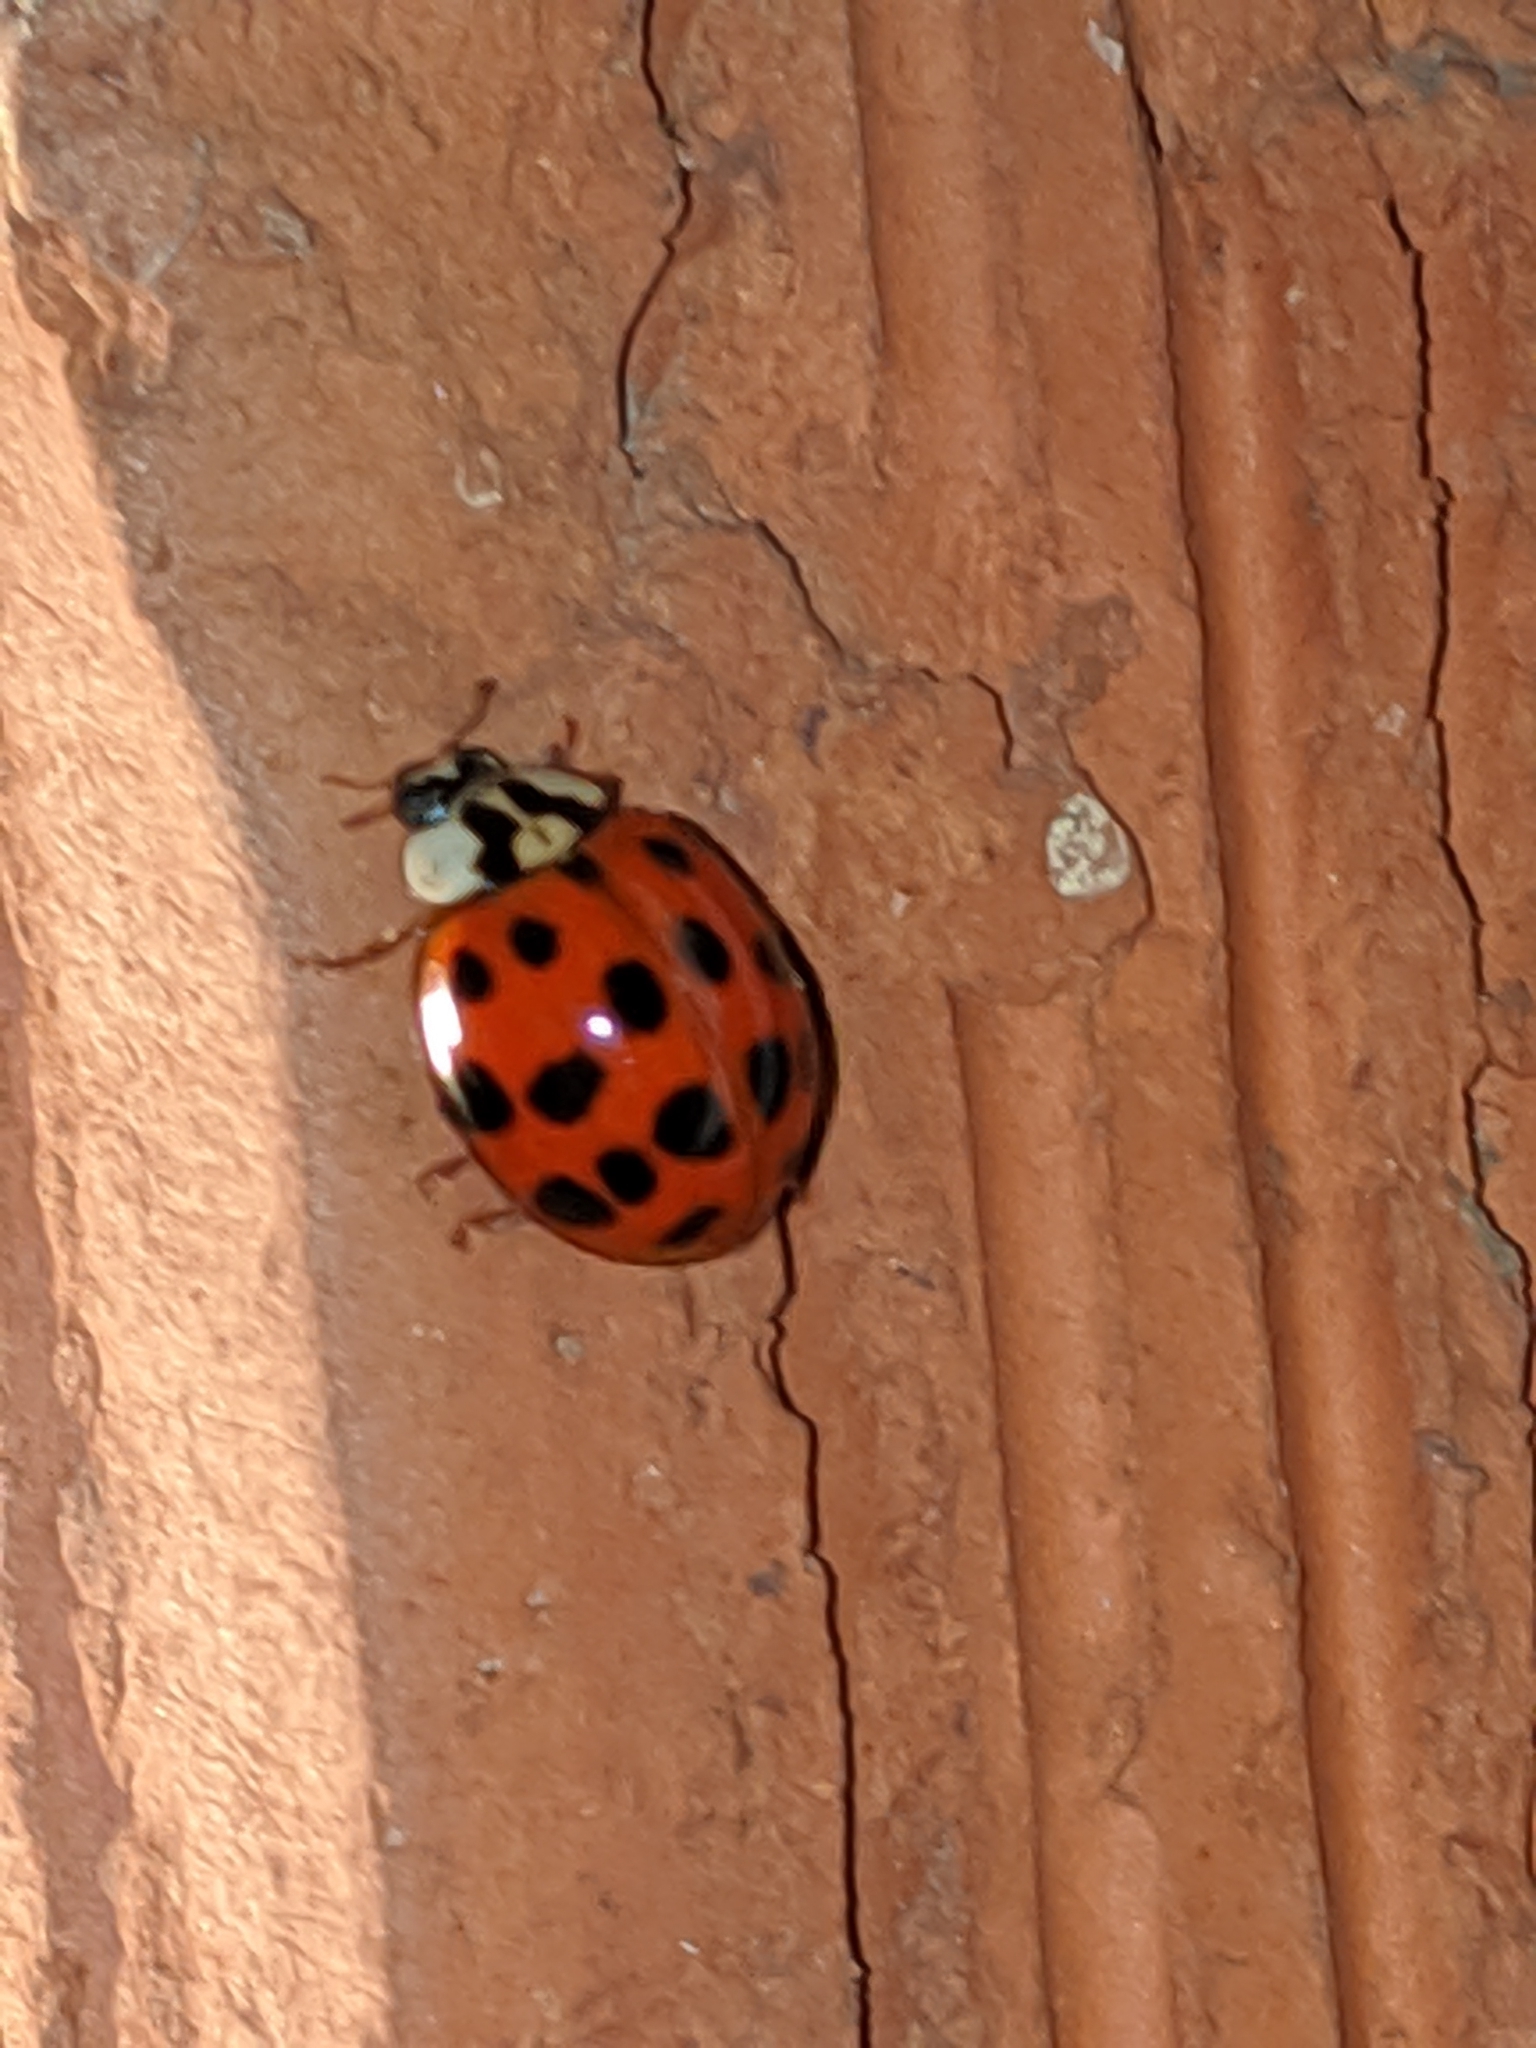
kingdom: Animalia
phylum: Arthropoda
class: Insecta
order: Coleoptera
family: Coccinellidae
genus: Harmonia
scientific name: Harmonia axyridis
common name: Harlequin ladybird
